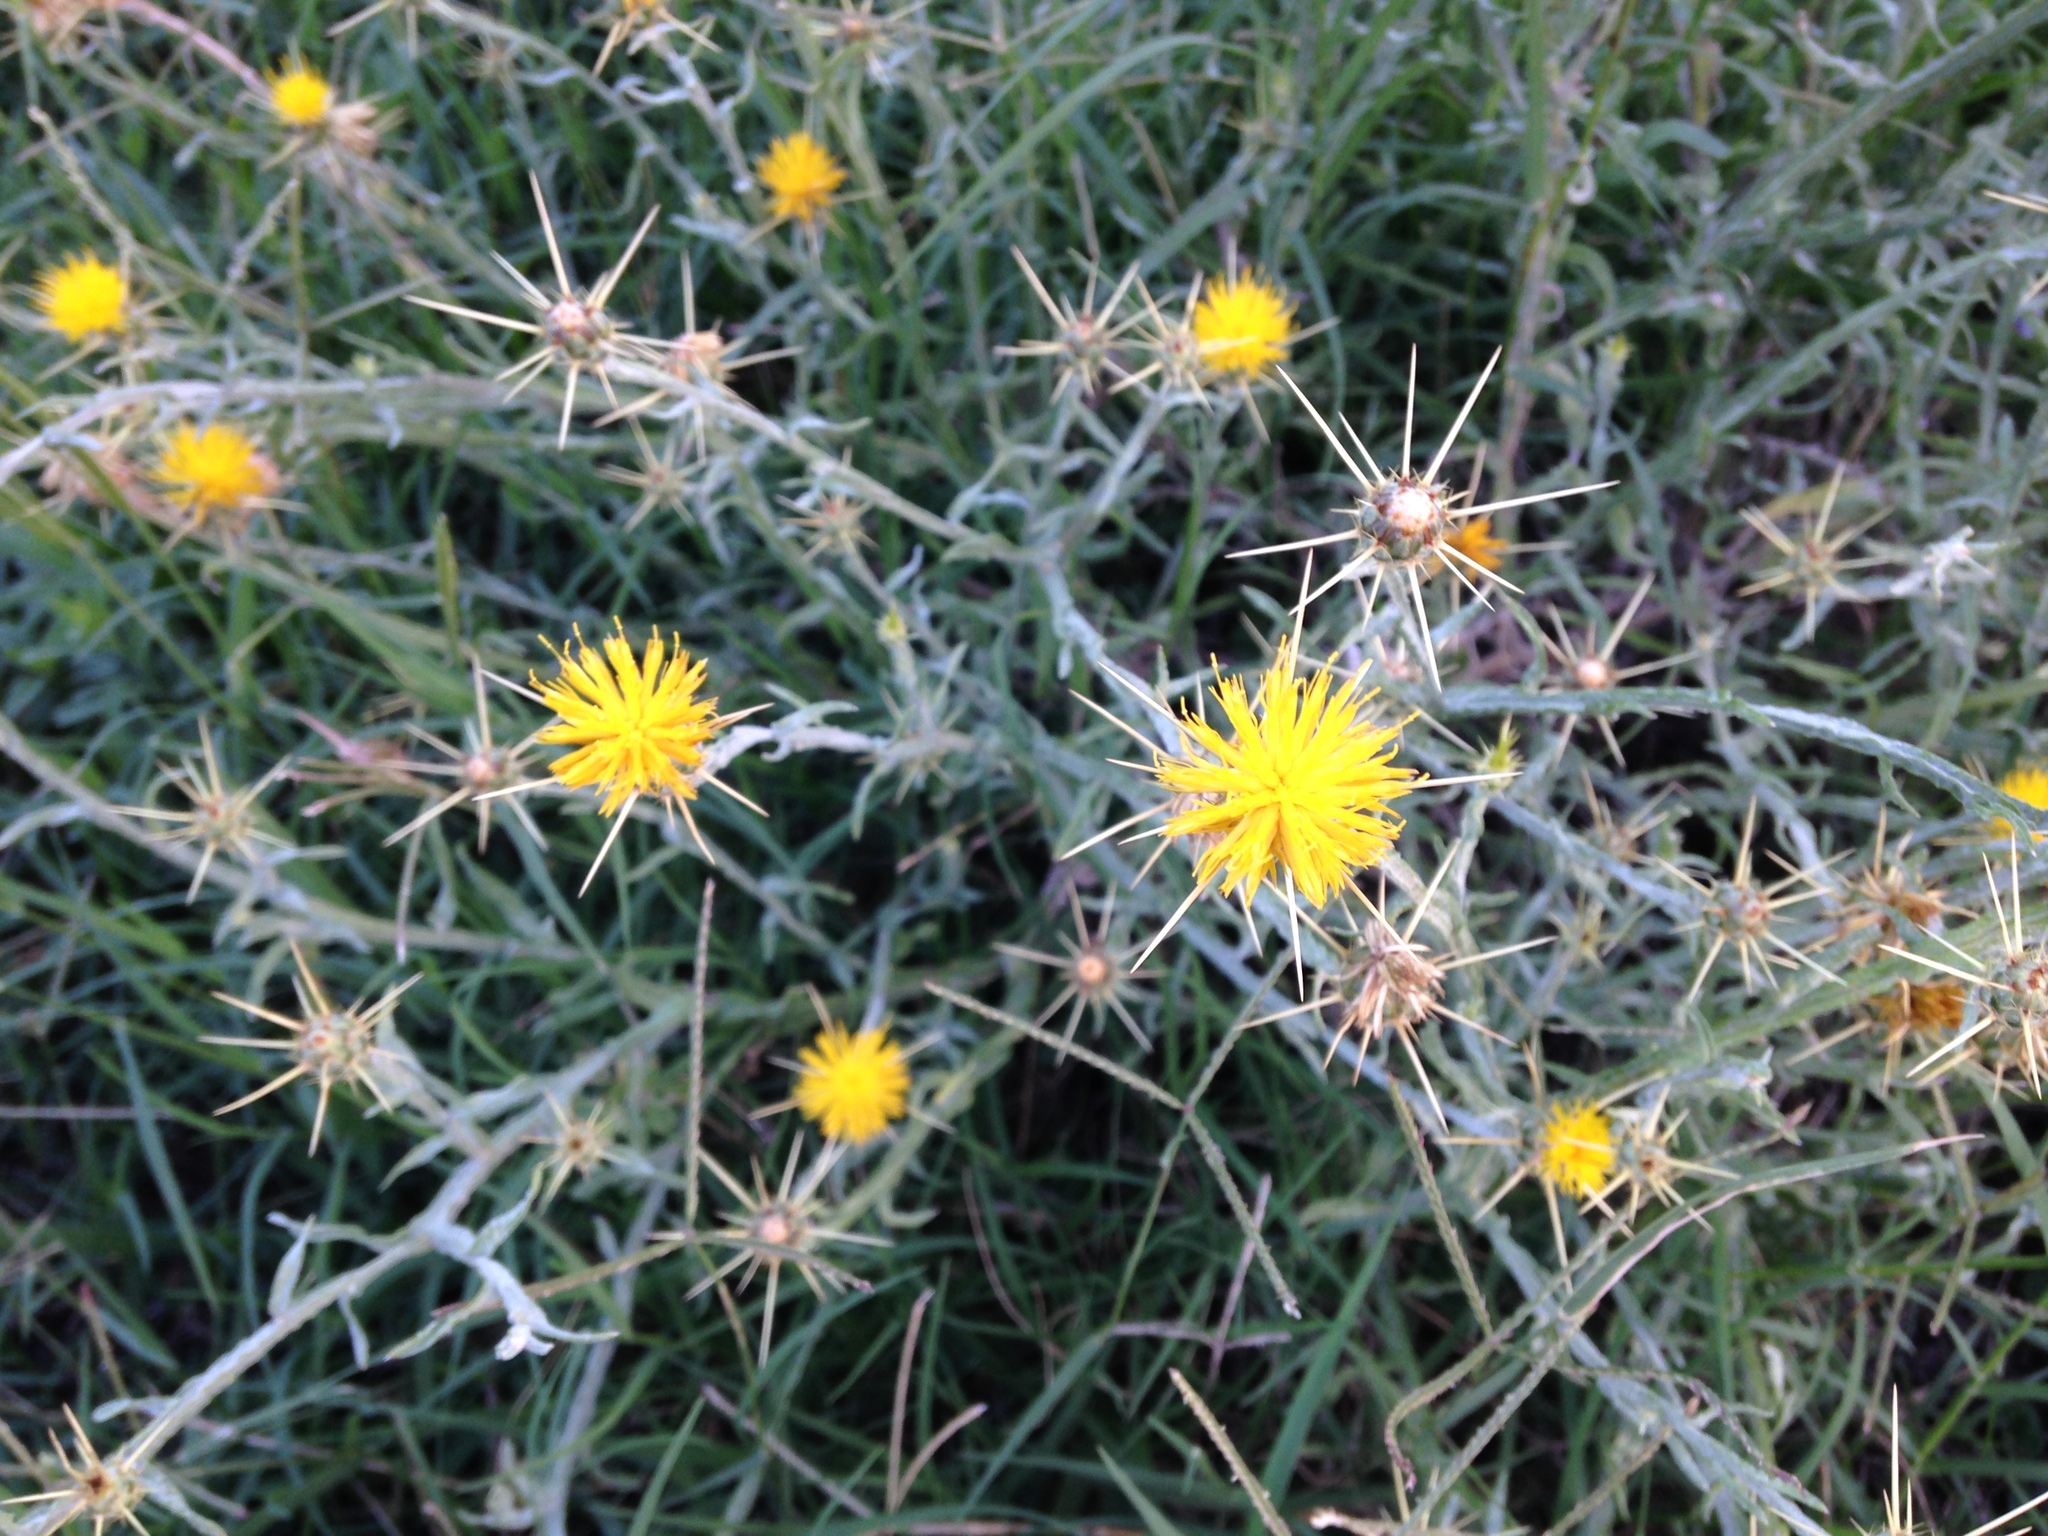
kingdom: Plantae
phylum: Tracheophyta
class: Magnoliopsida
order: Asterales
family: Asteraceae
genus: Centaurea
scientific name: Centaurea solstitialis
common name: Yellow star-thistle
